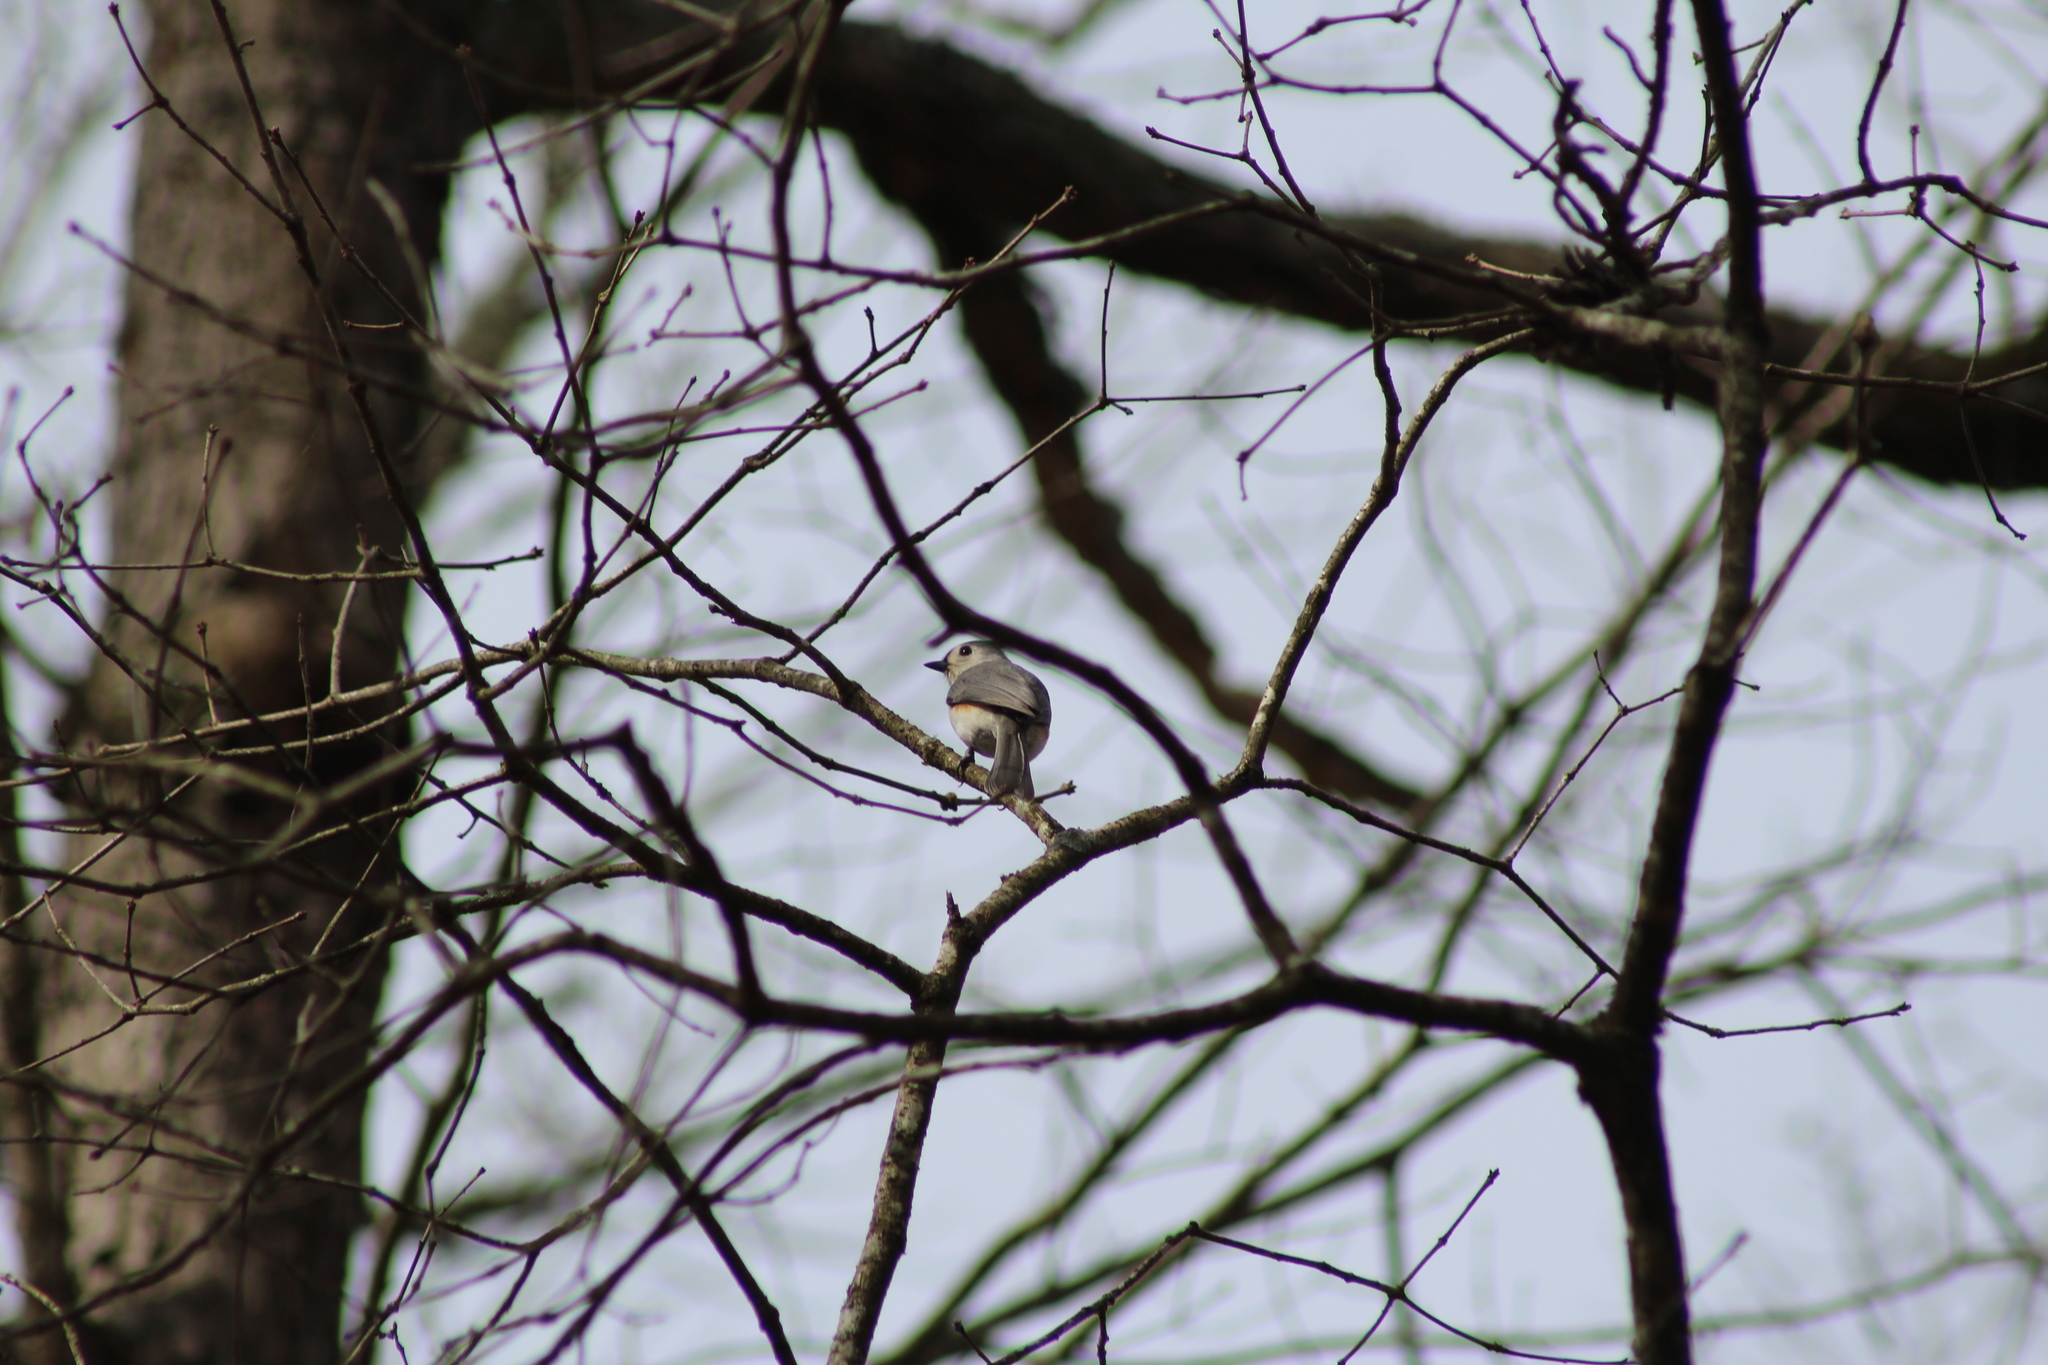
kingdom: Animalia
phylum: Chordata
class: Aves
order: Passeriformes
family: Paridae
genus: Baeolophus
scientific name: Baeolophus bicolor
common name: Tufted titmouse
